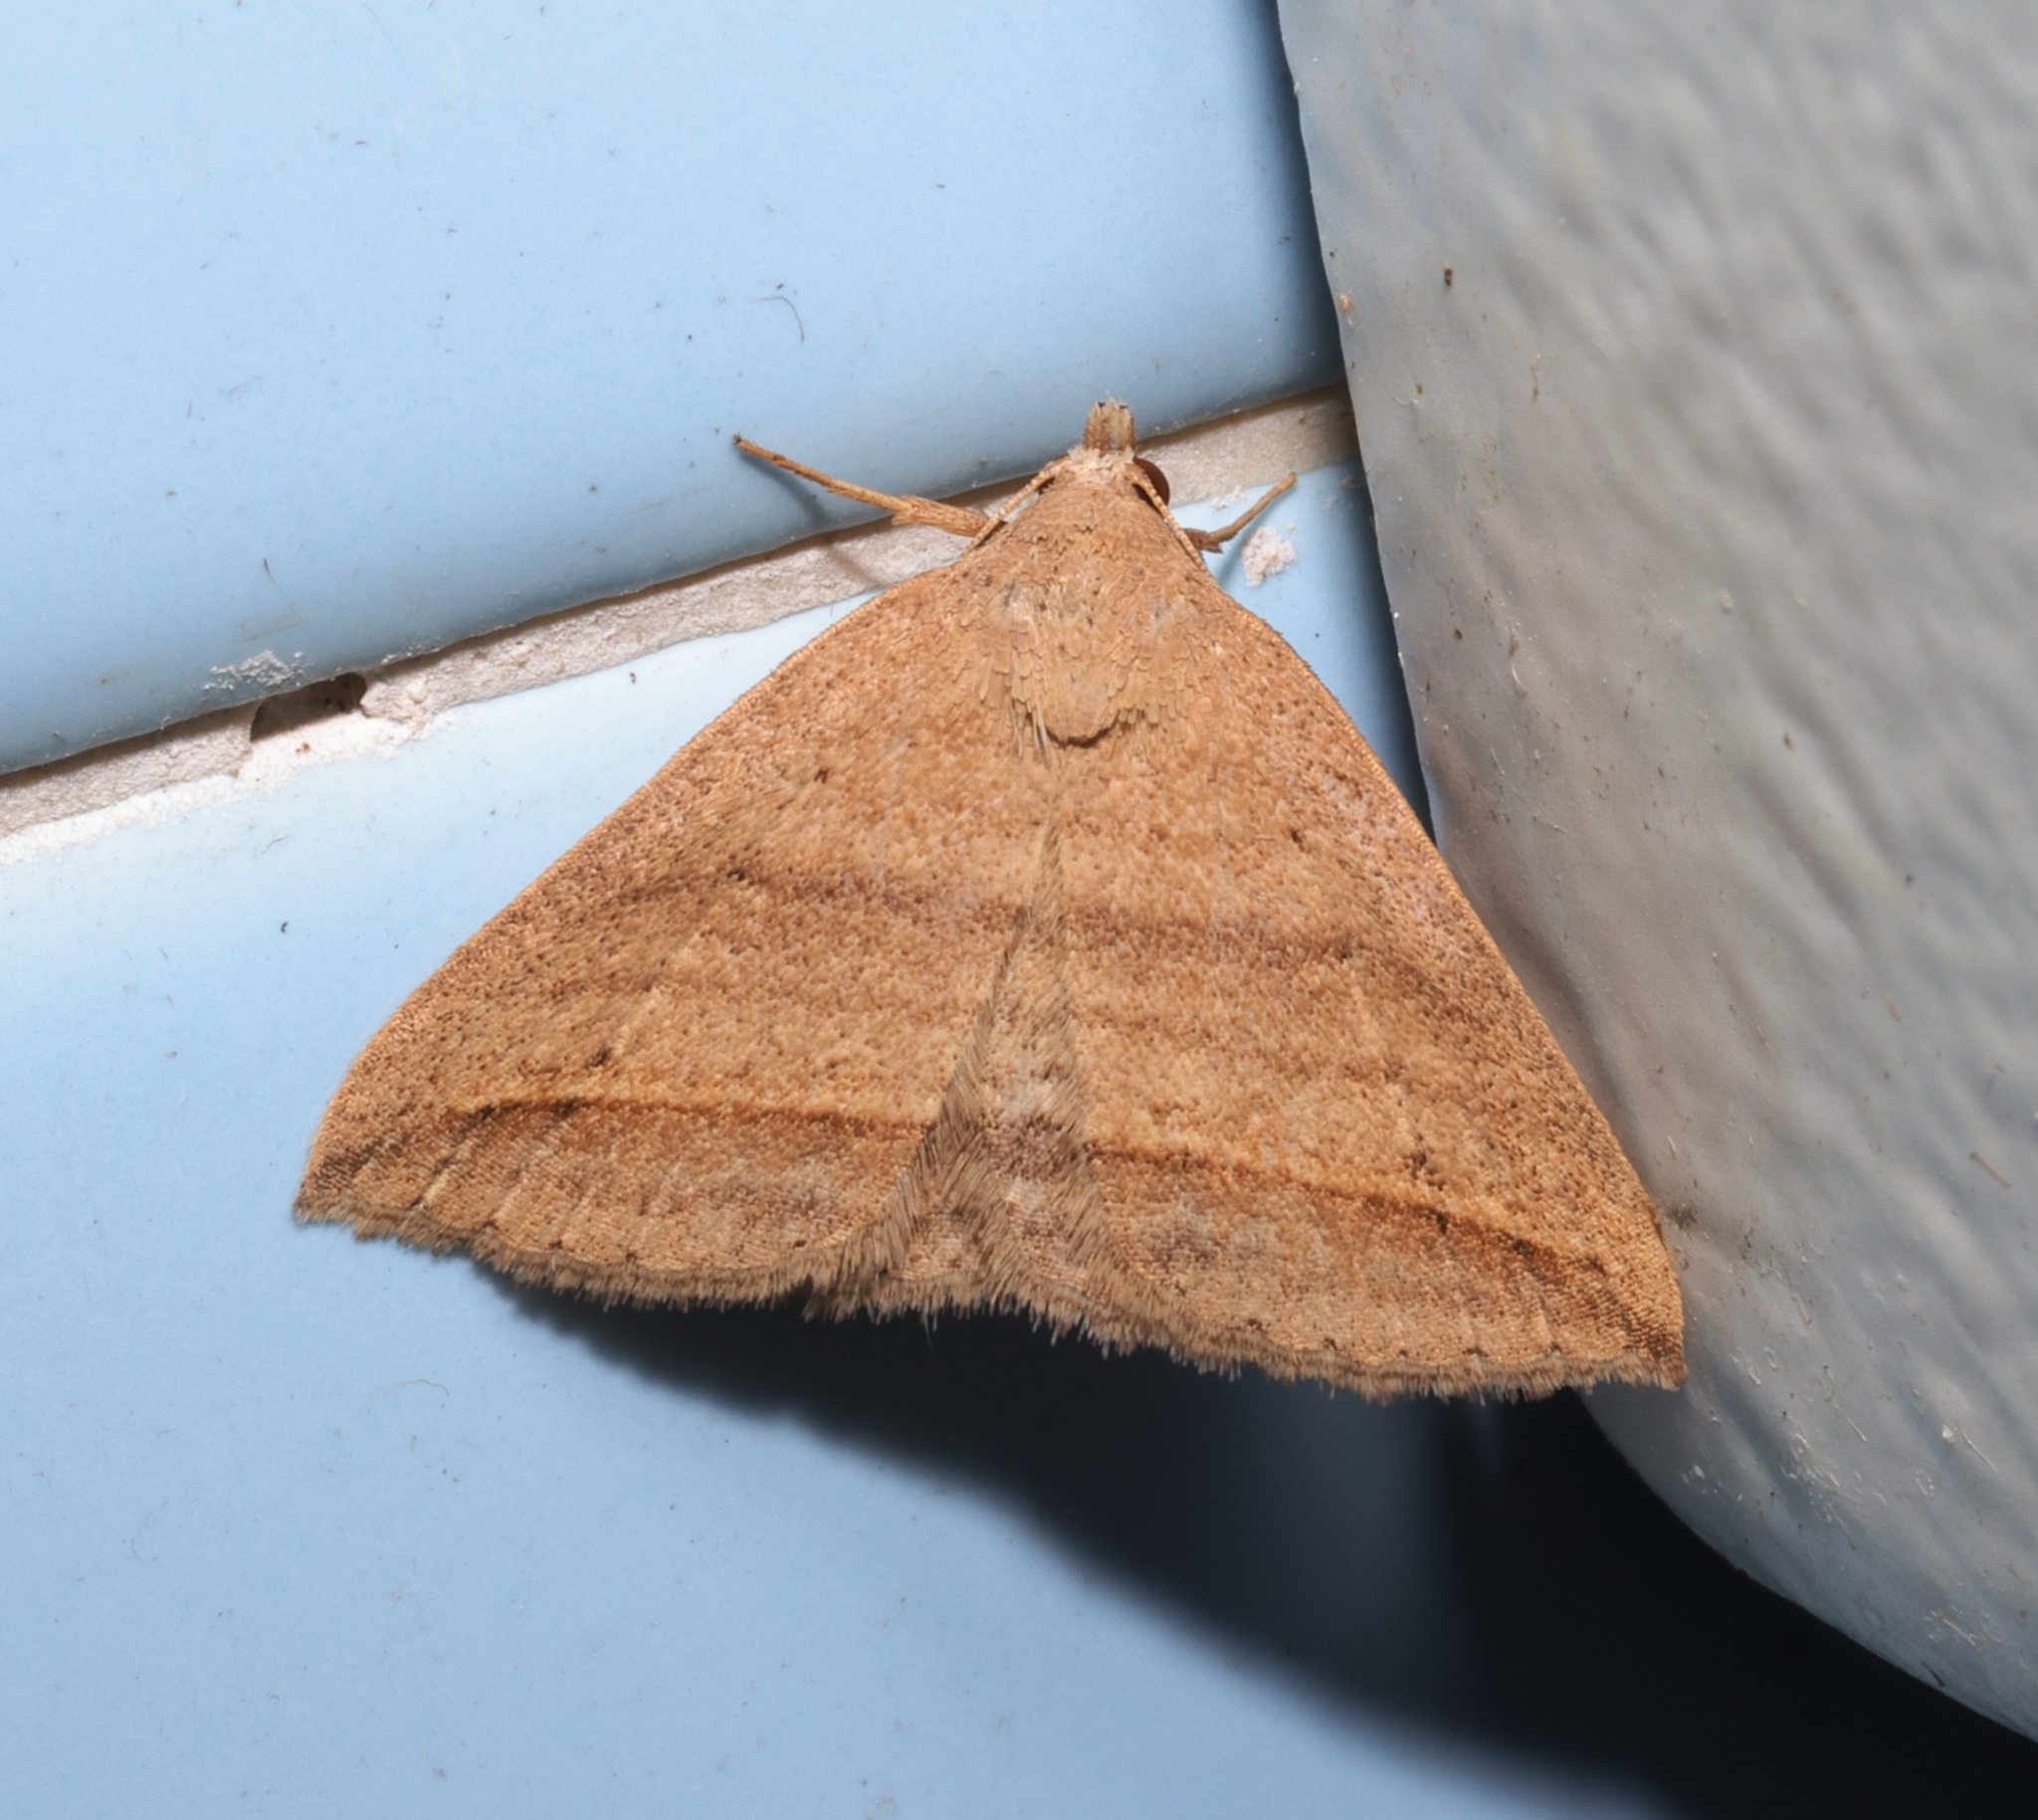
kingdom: Animalia
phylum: Arthropoda
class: Insecta
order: Lepidoptera
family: Erebidae
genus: Loxioda
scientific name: Loxioda similis
